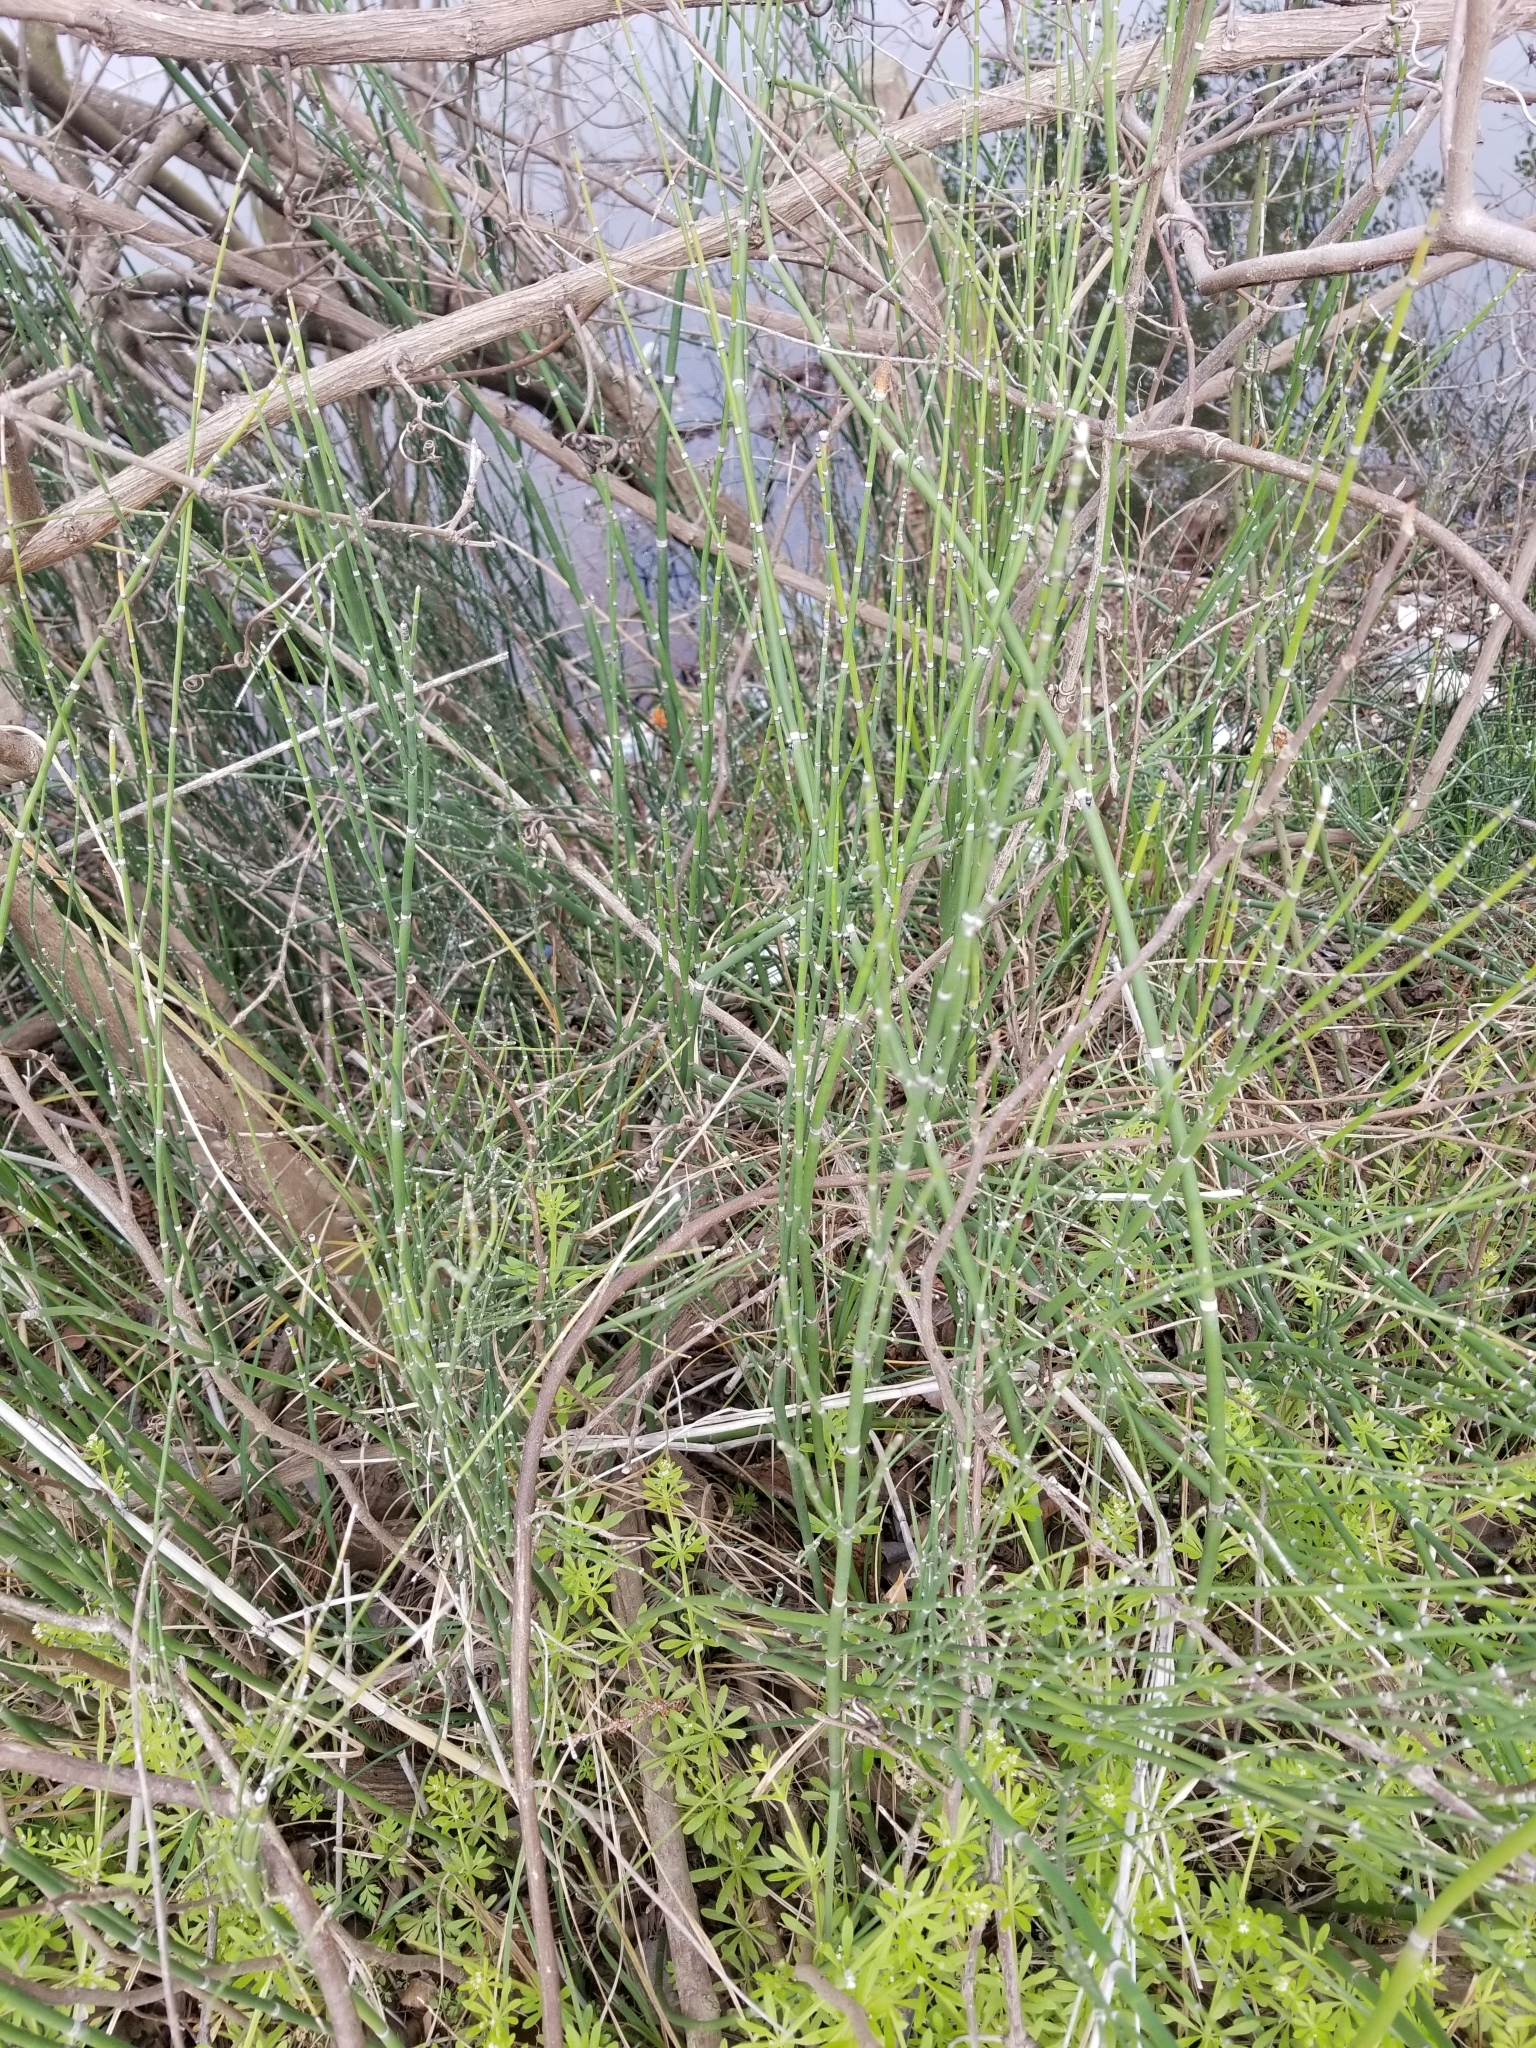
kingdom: Plantae
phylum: Tracheophyta
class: Polypodiopsida
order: Equisetales
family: Equisetaceae
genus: Equisetum
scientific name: Equisetum hyemale
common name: Rough horsetail
